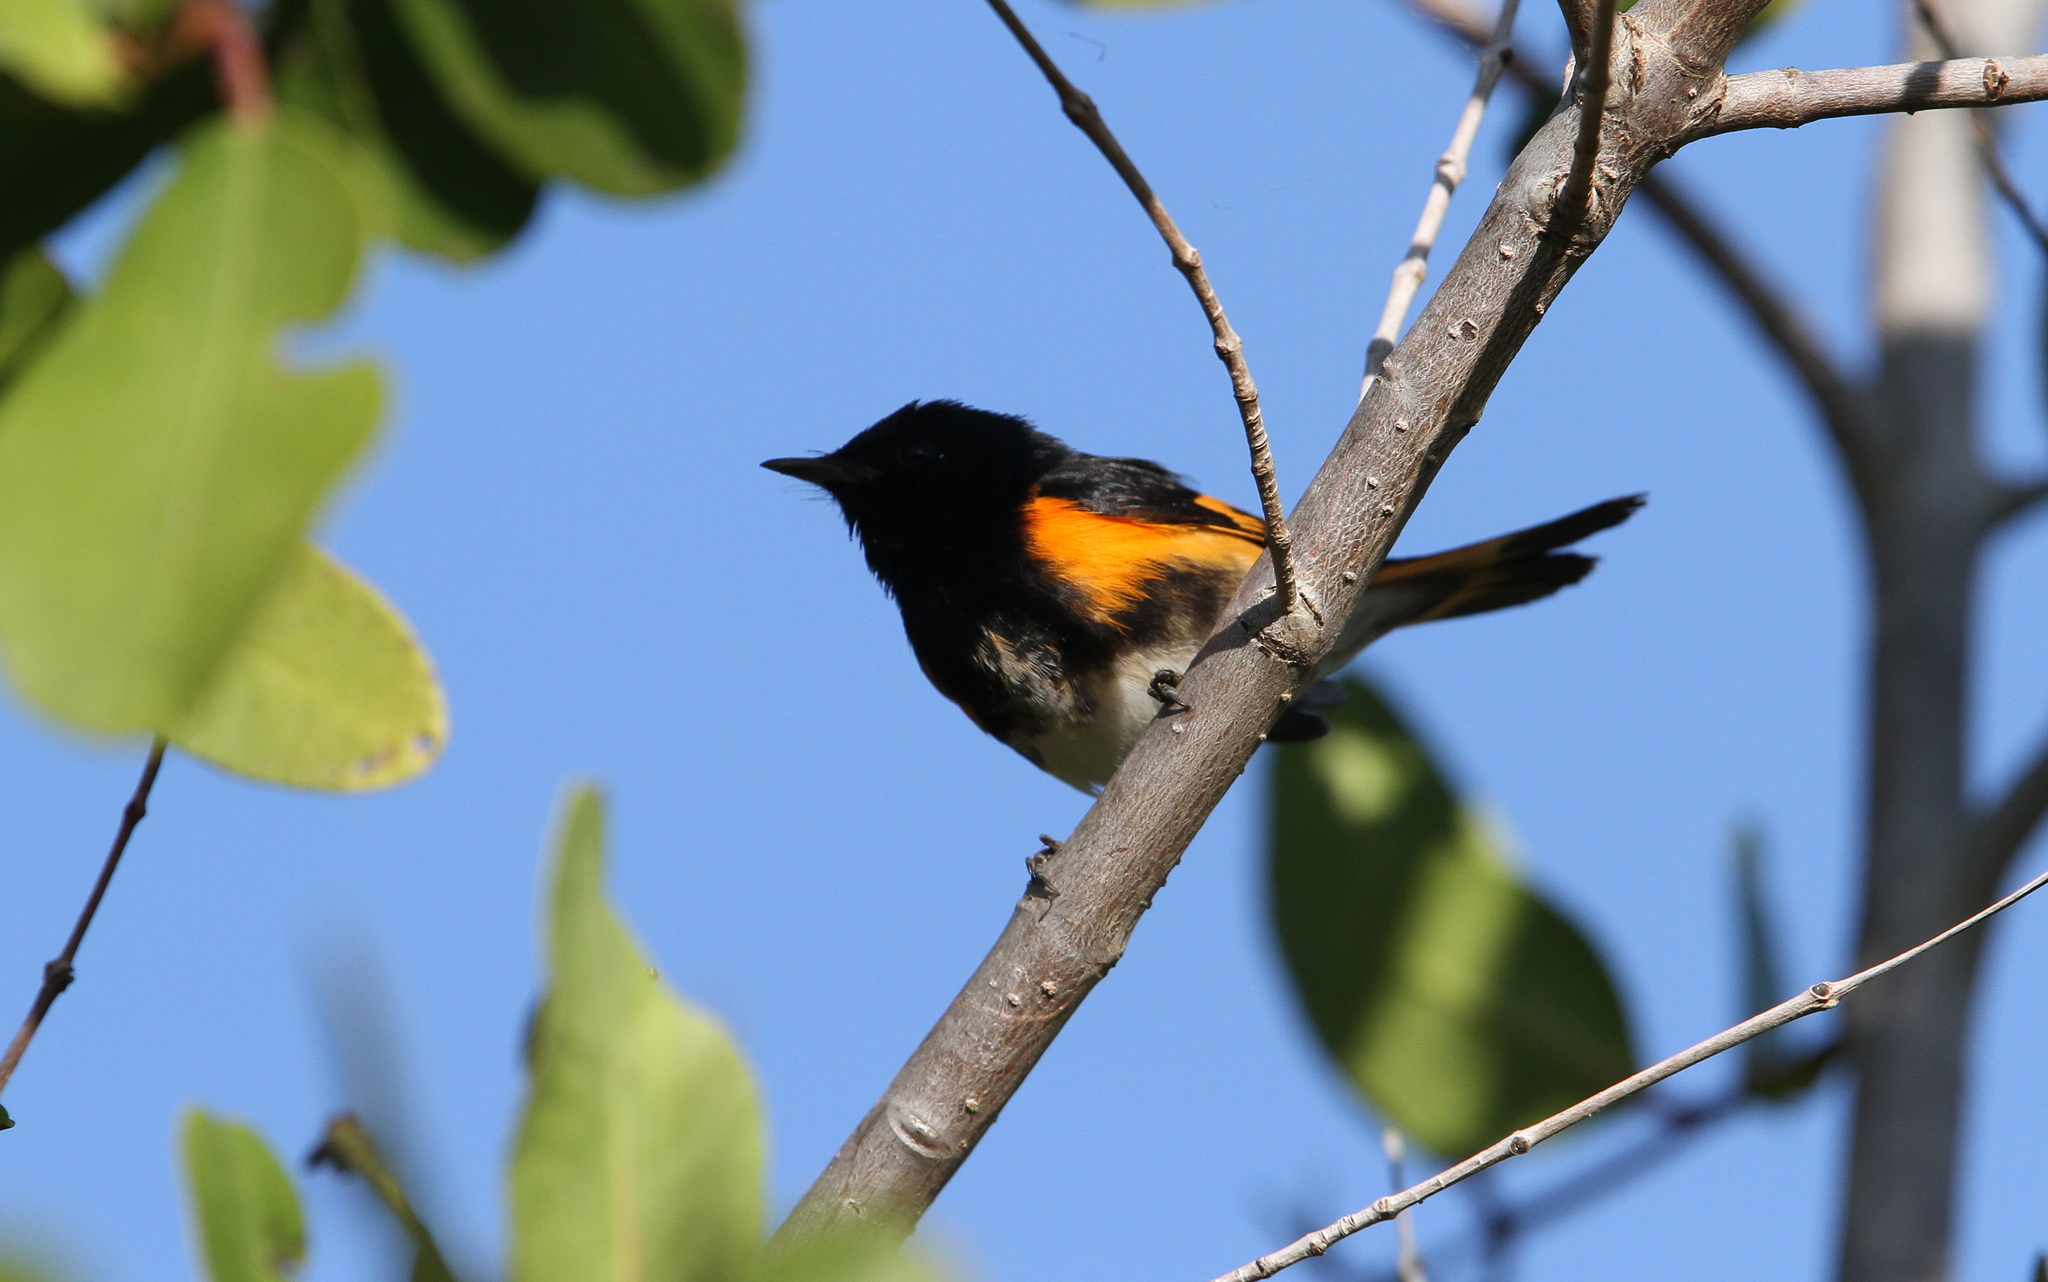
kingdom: Animalia
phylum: Chordata
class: Aves
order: Passeriformes
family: Parulidae
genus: Setophaga
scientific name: Setophaga ruticilla
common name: American redstart
